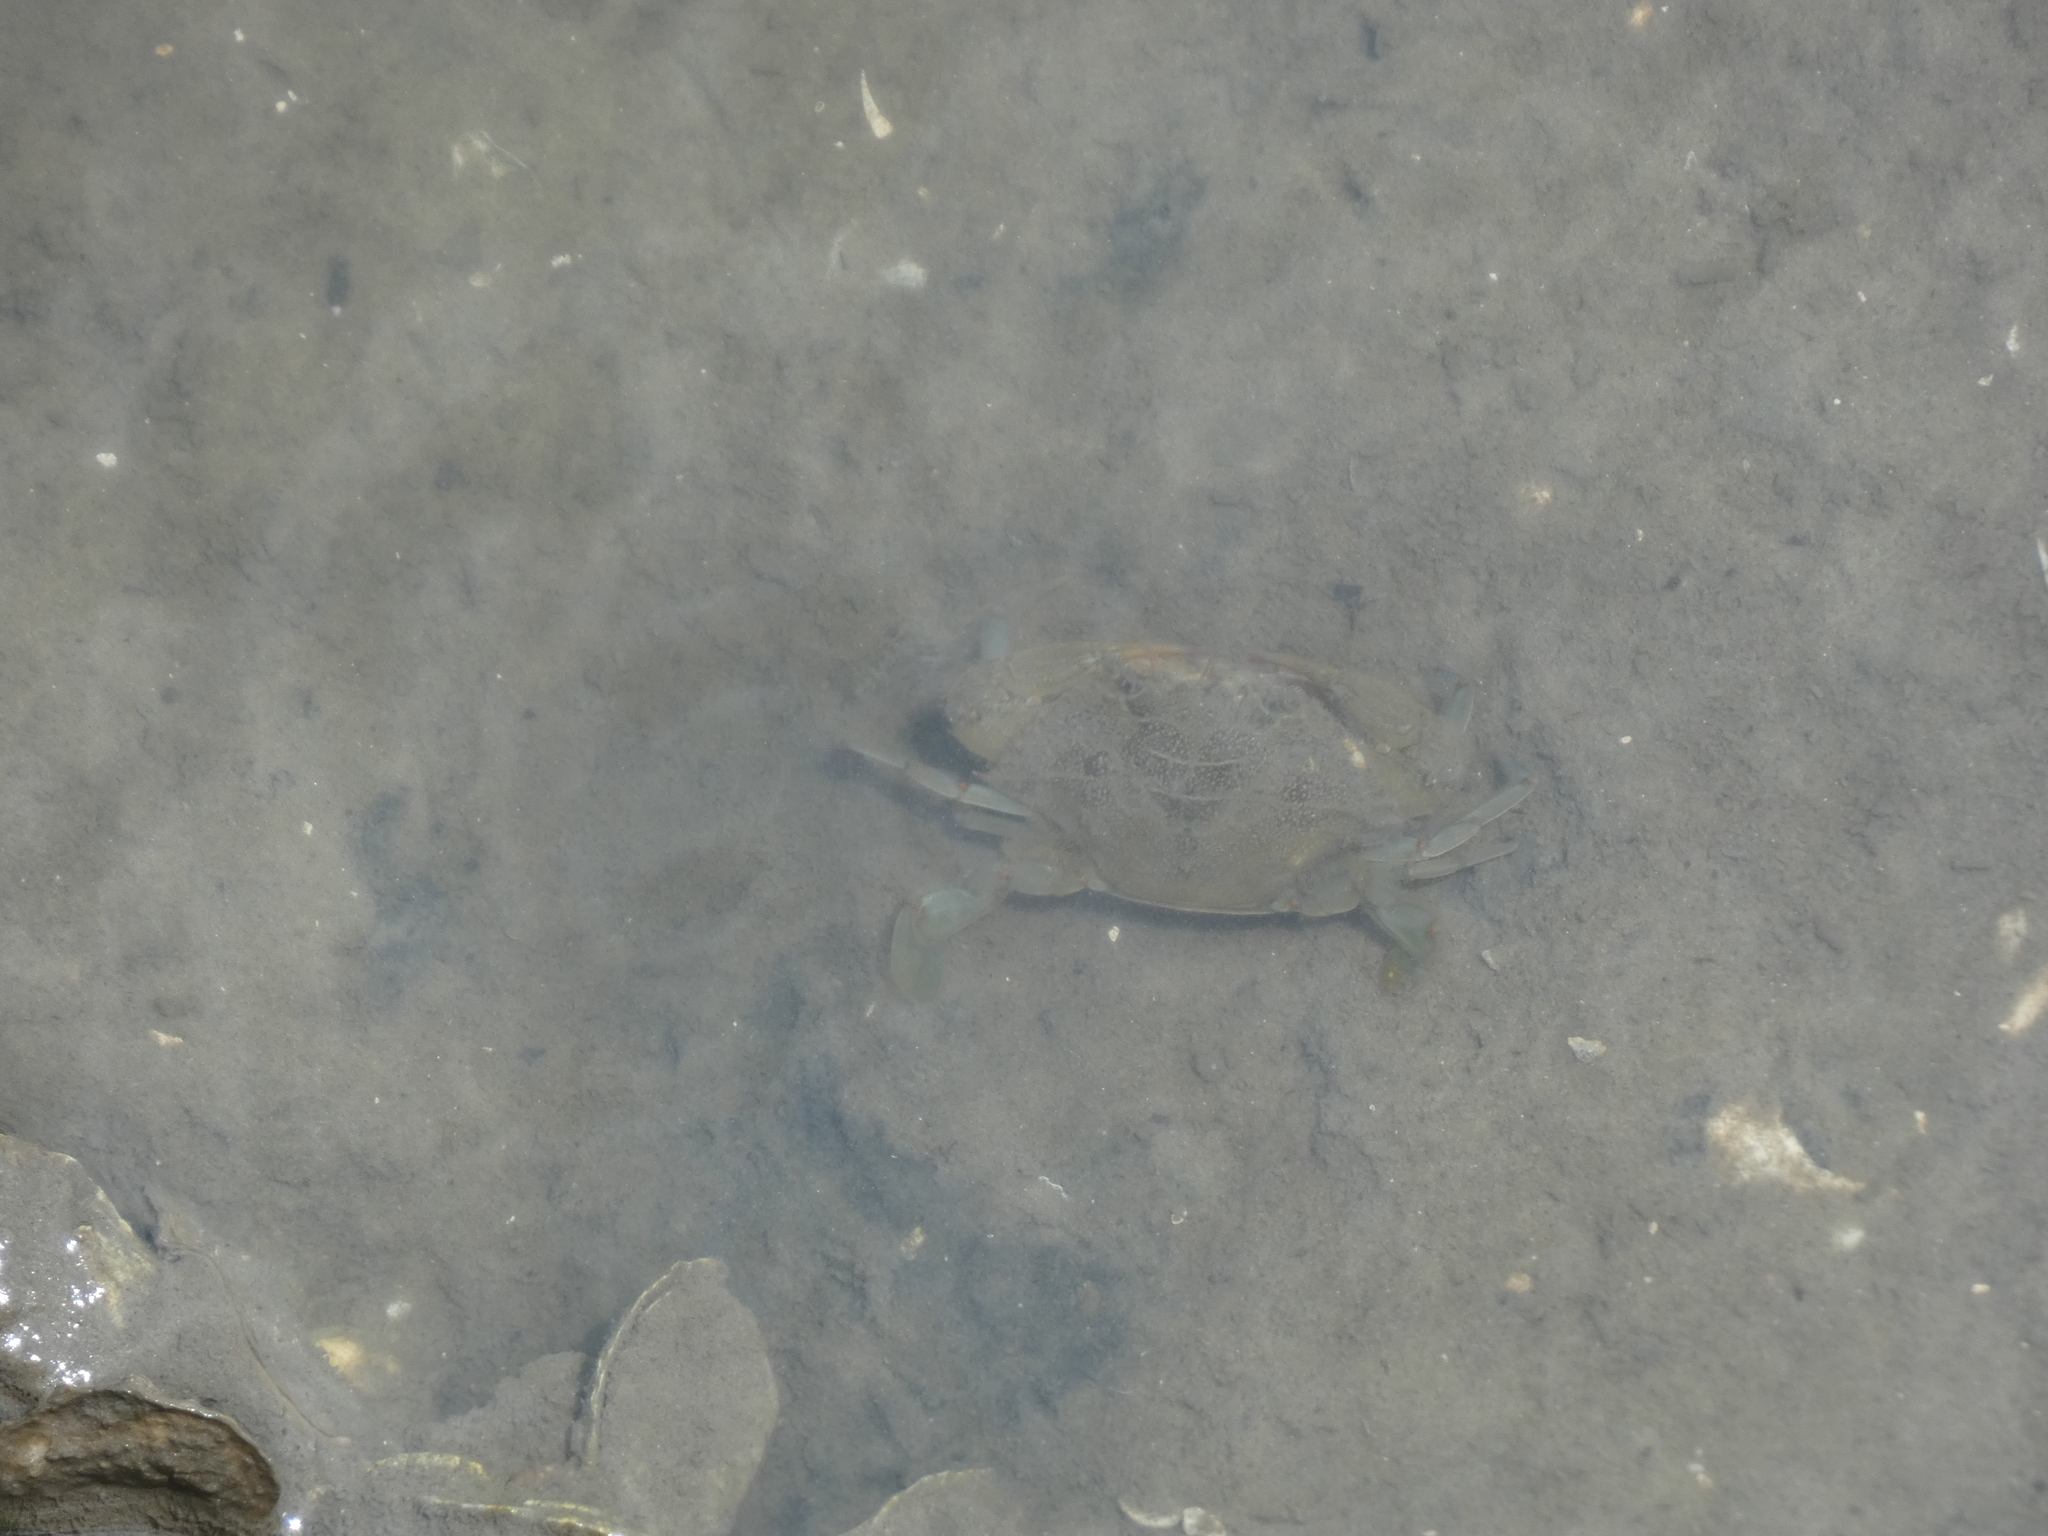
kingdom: Animalia
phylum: Arthropoda
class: Malacostraca
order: Decapoda
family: Portunidae
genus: Callinectes
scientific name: Callinectes sapidus
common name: Blue crab
